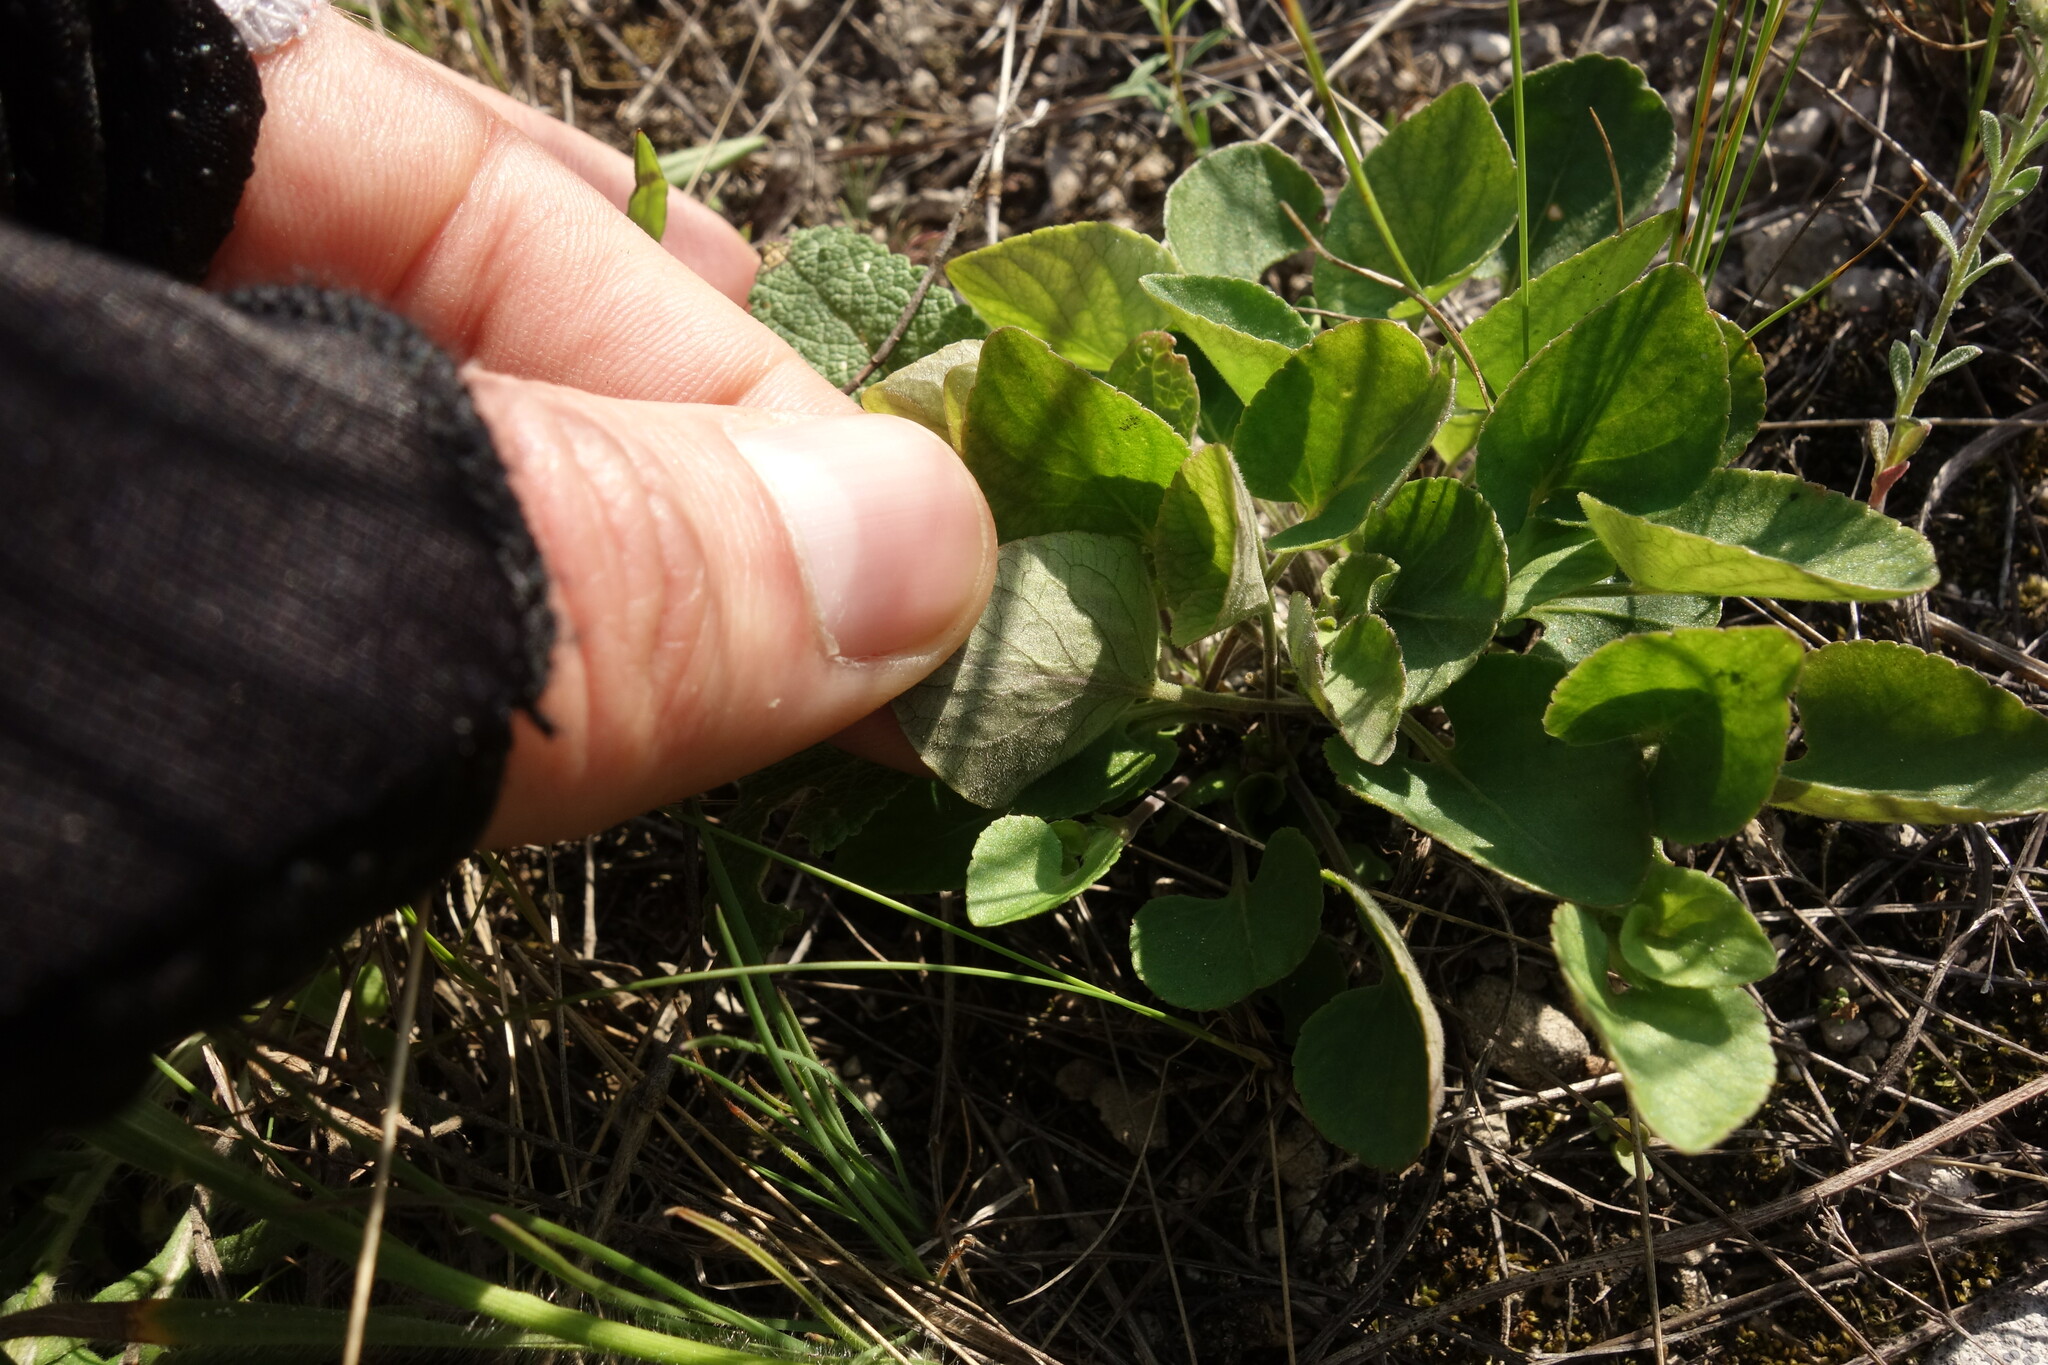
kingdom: Plantae
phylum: Tracheophyta
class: Magnoliopsida
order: Malpighiales
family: Violaceae
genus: Viola
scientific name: Viola rupestris
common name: Teesdale violet
